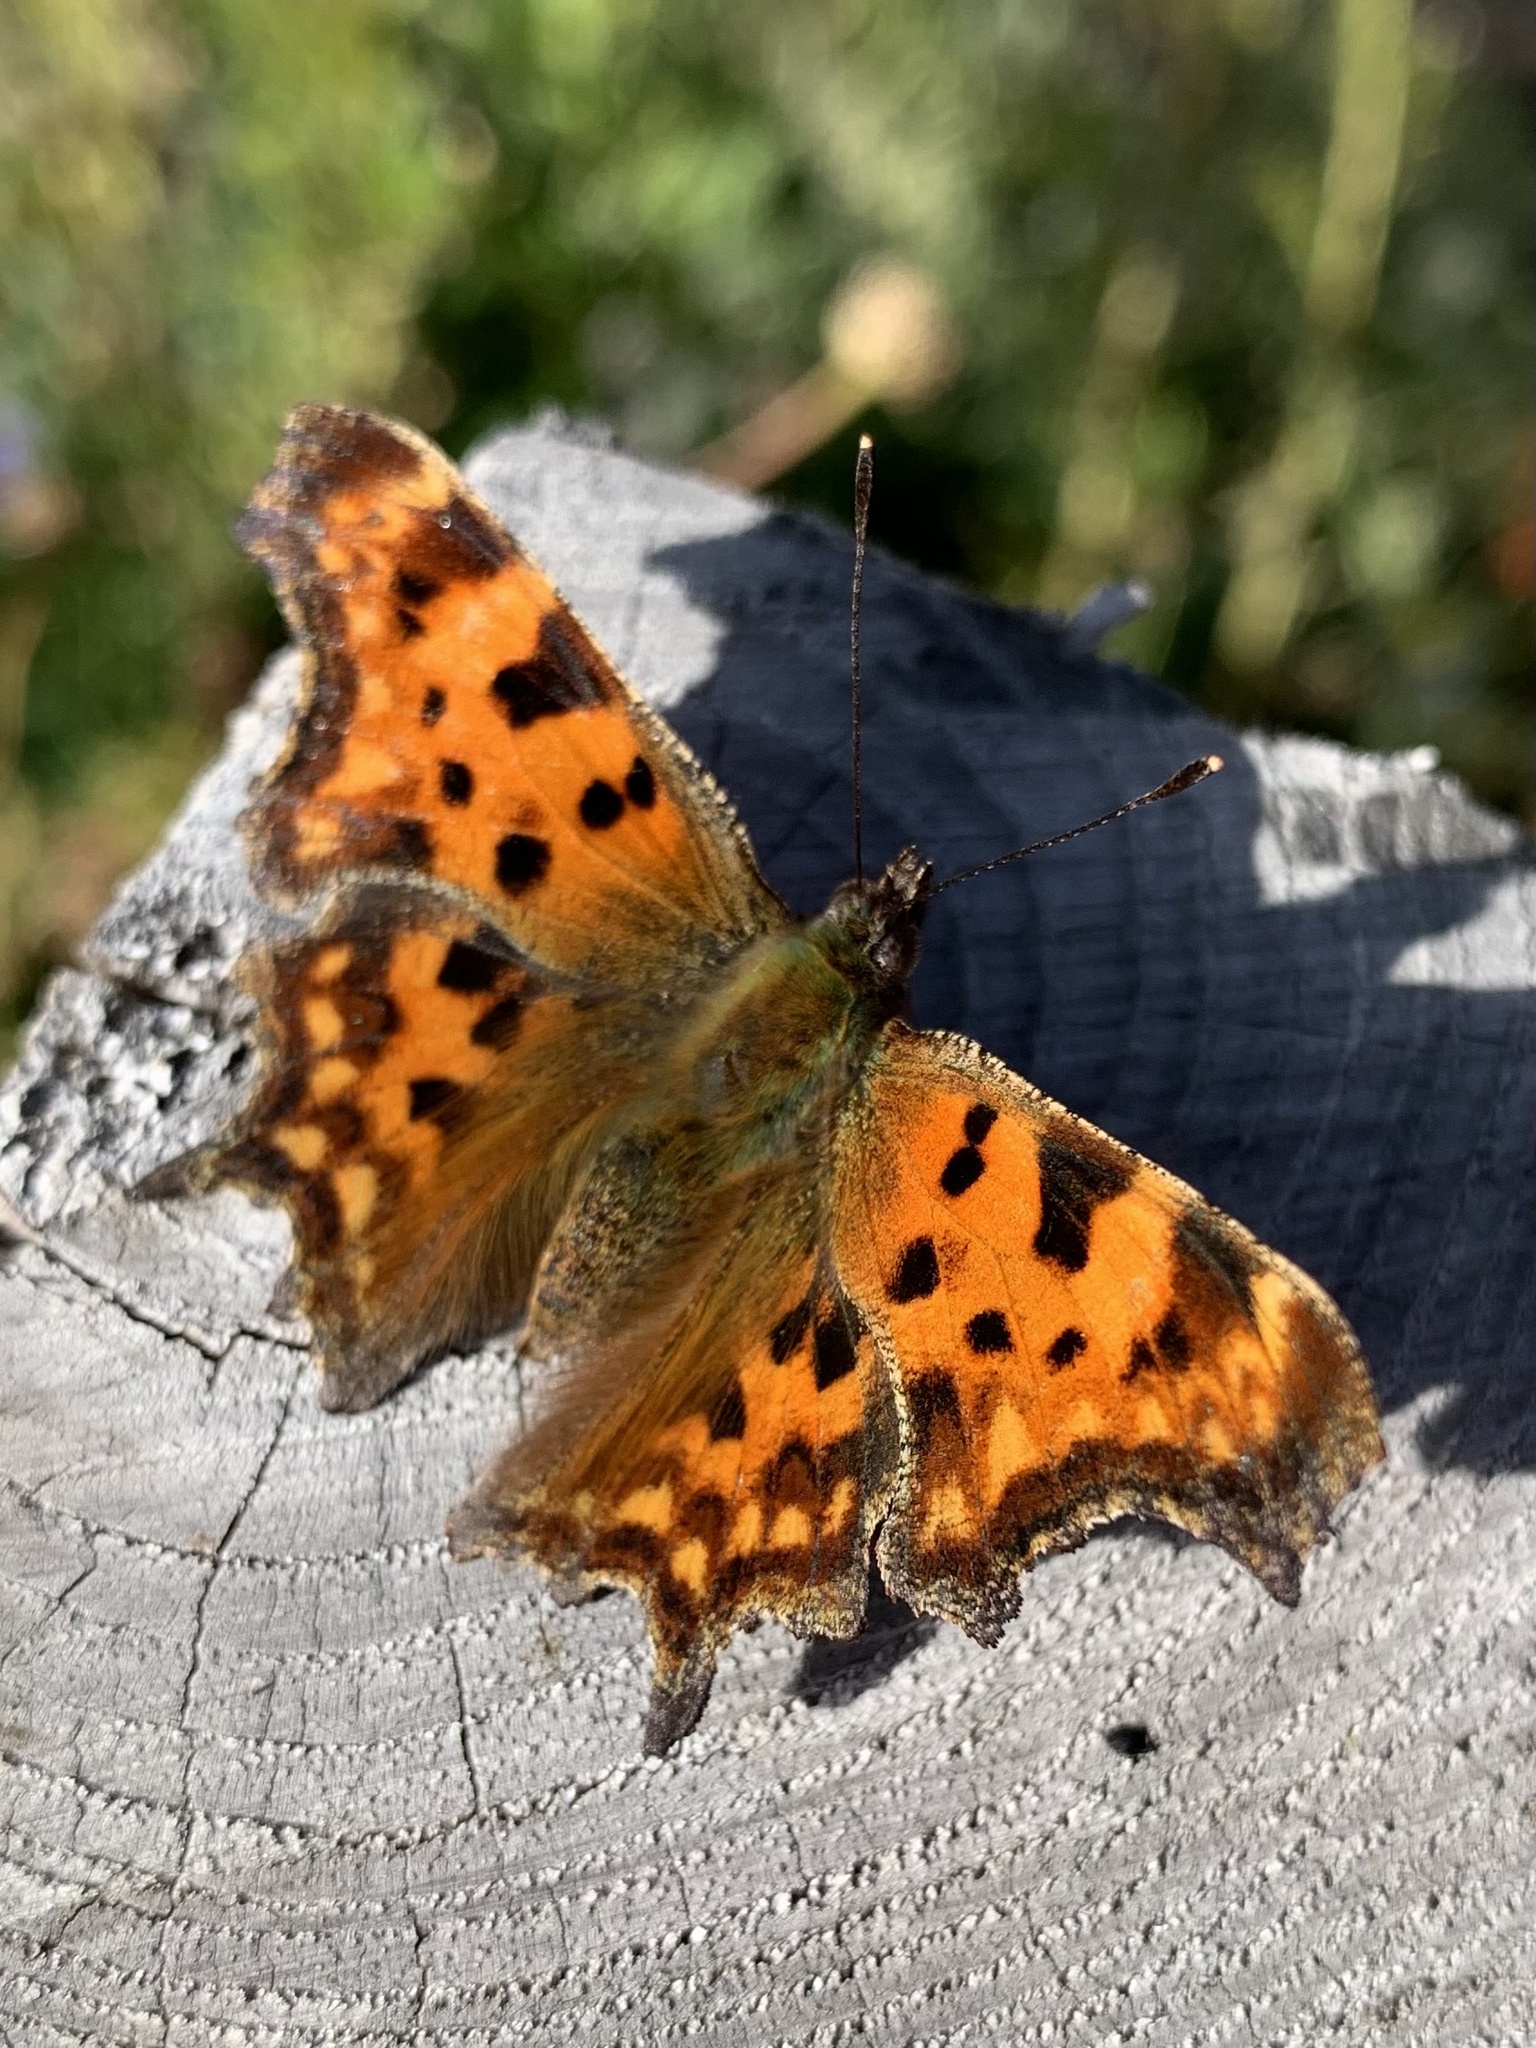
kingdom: Animalia
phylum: Arthropoda
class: Insecta
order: Lepidoptera
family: Nymphalidae
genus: Polygonia
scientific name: Polygonia c-album
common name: Comma
